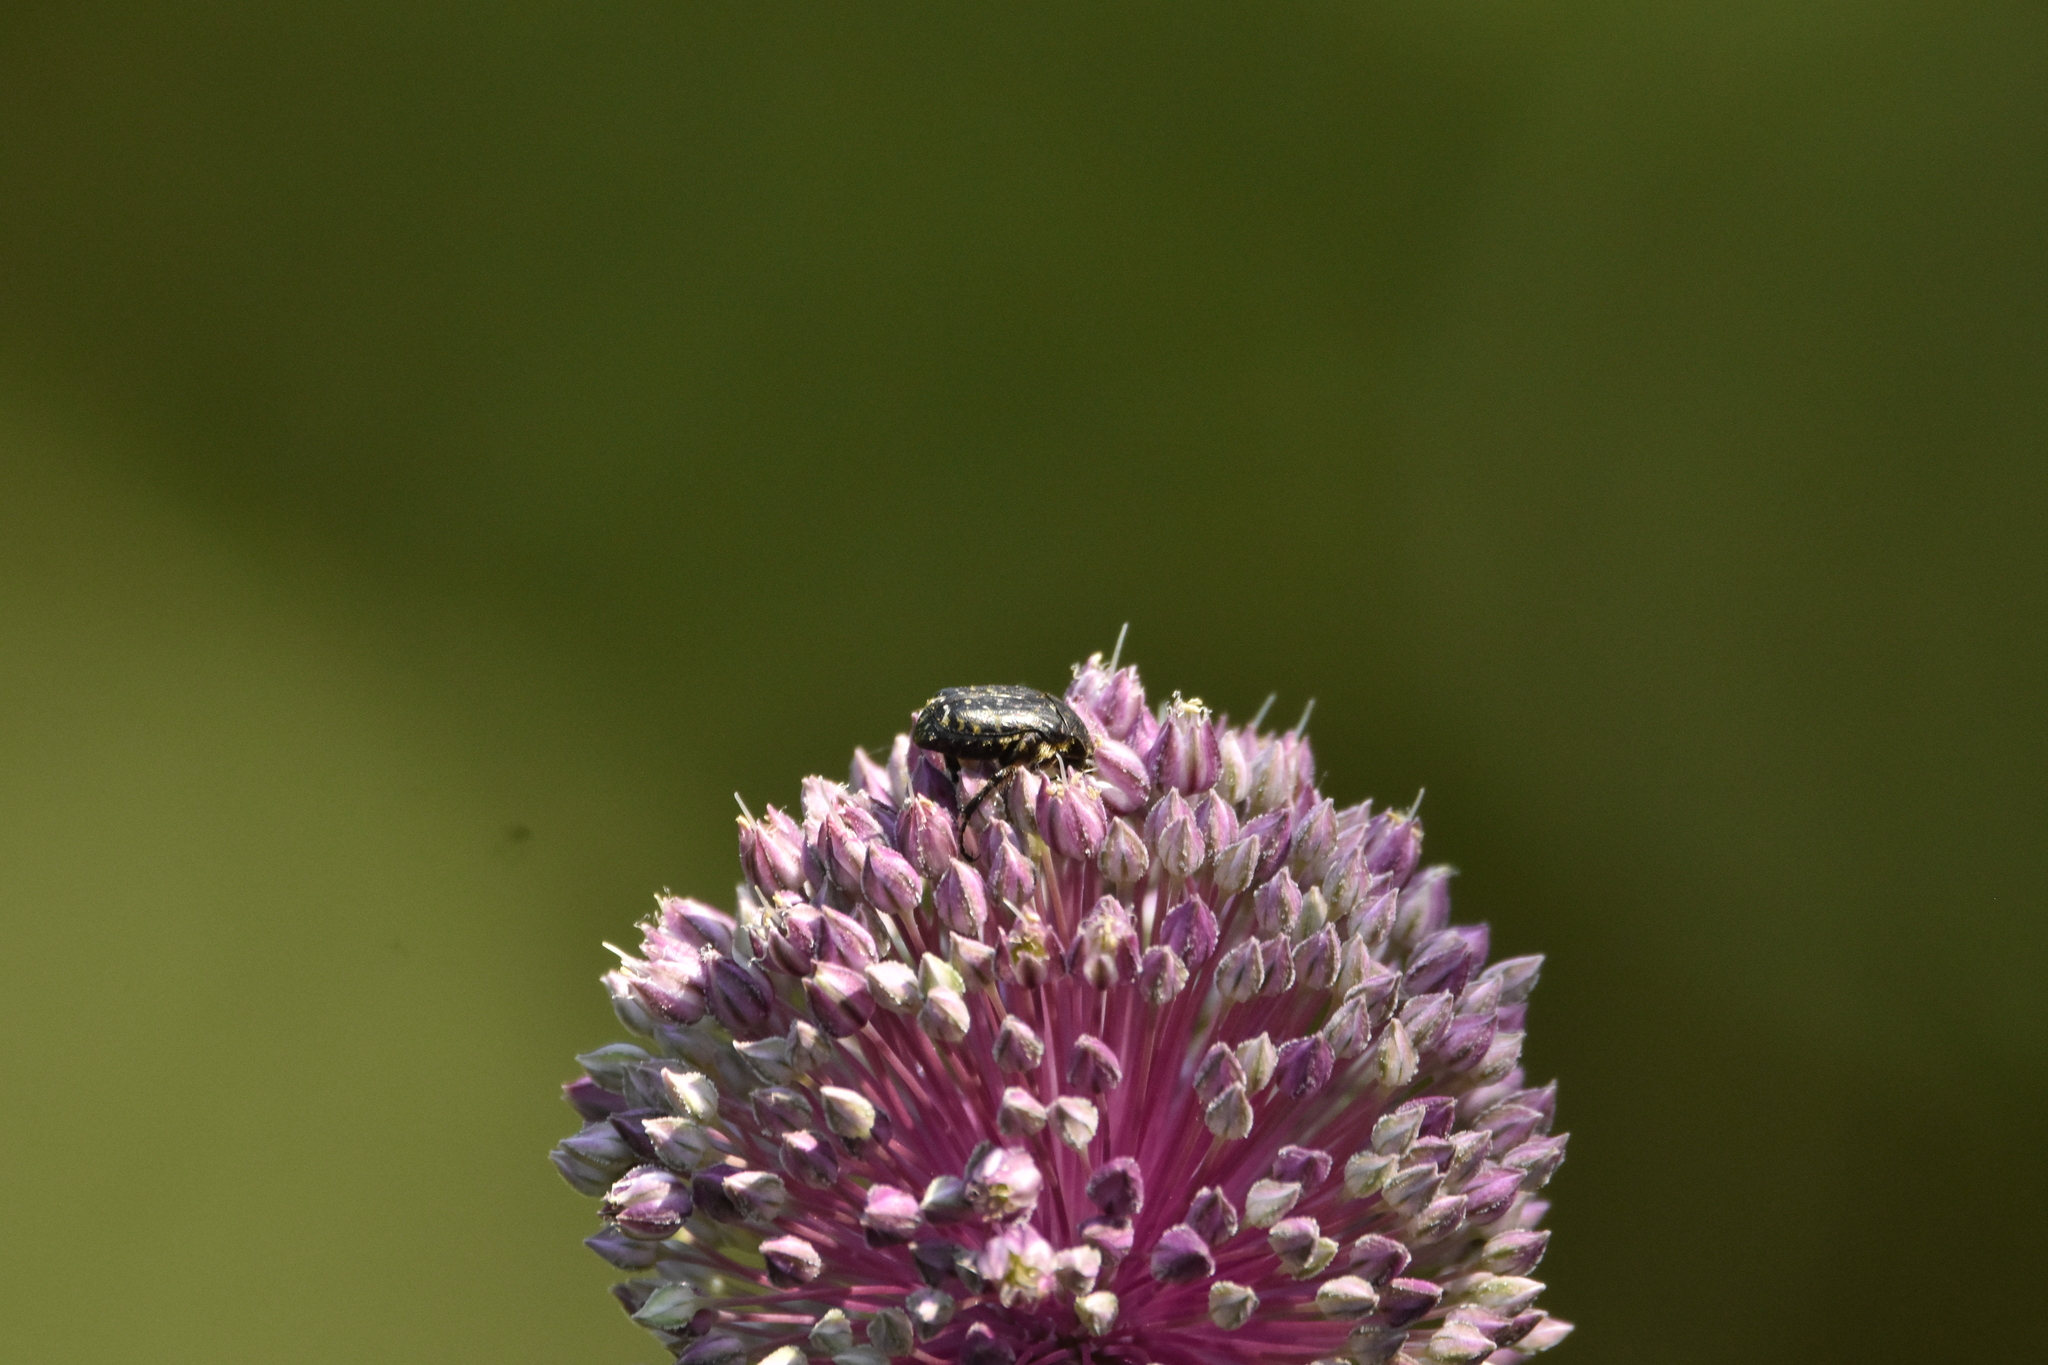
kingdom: Animalia
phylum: Arthropoda
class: Insecta
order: Coleoptera
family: Scarabaeidae
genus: Oxythyrea
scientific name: Oxythyrea funesta
